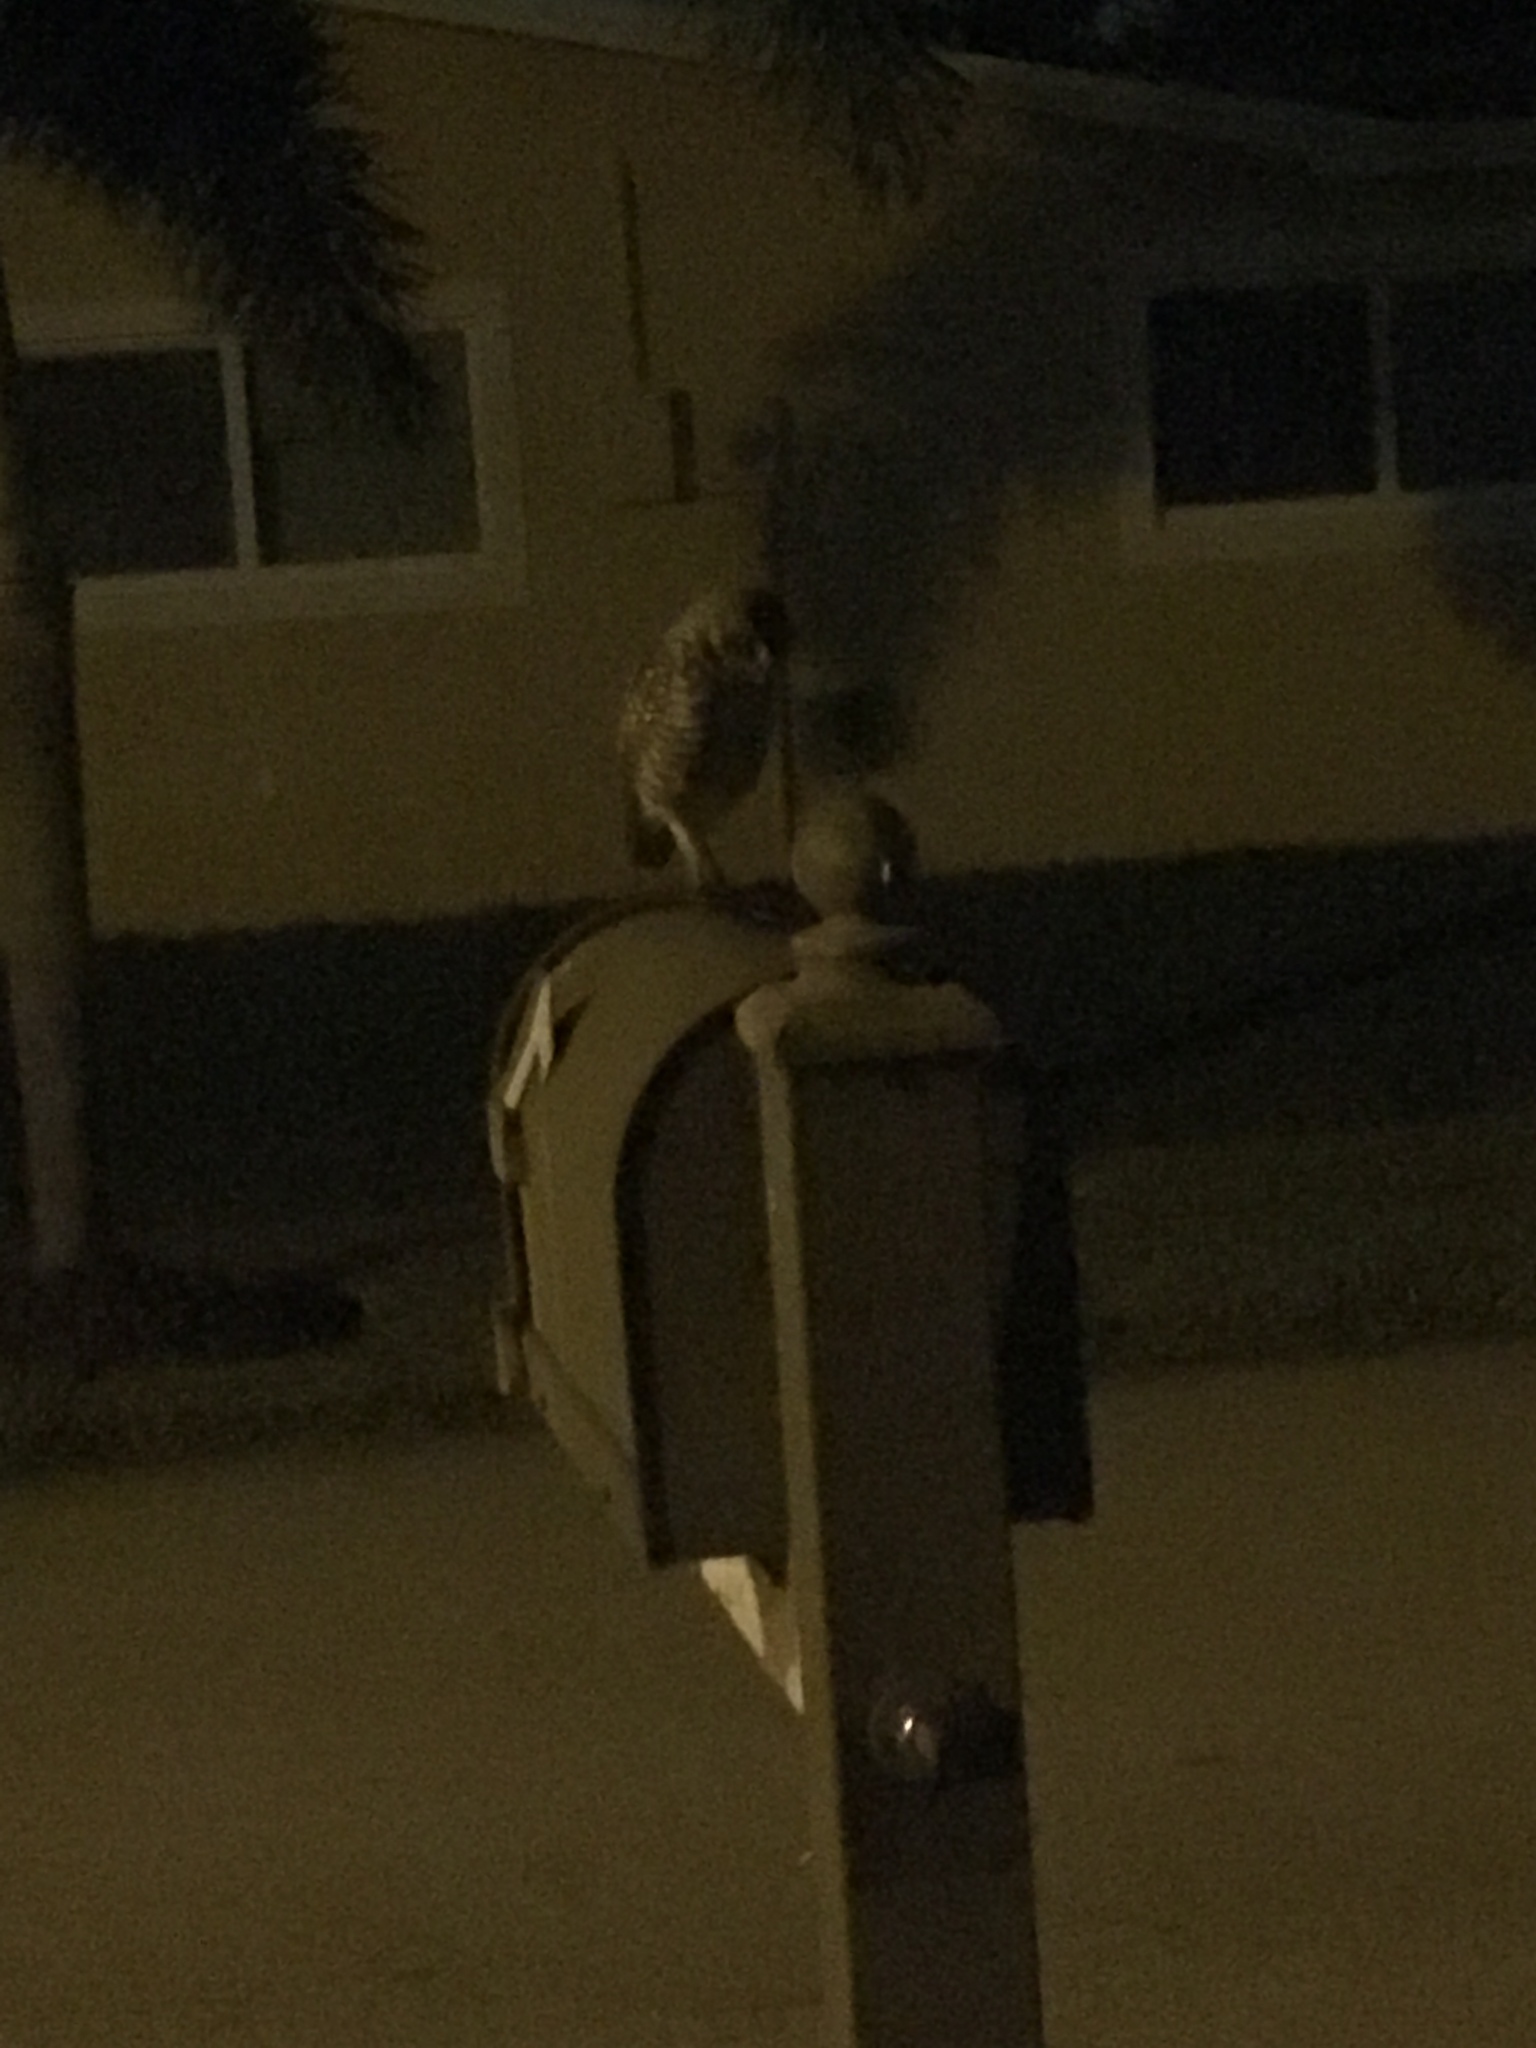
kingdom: Animalia
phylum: Chordata
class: Aves
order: Strigiformes
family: Strigidae
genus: Athene
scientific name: Athene cunicularia
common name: Burrowing owl
